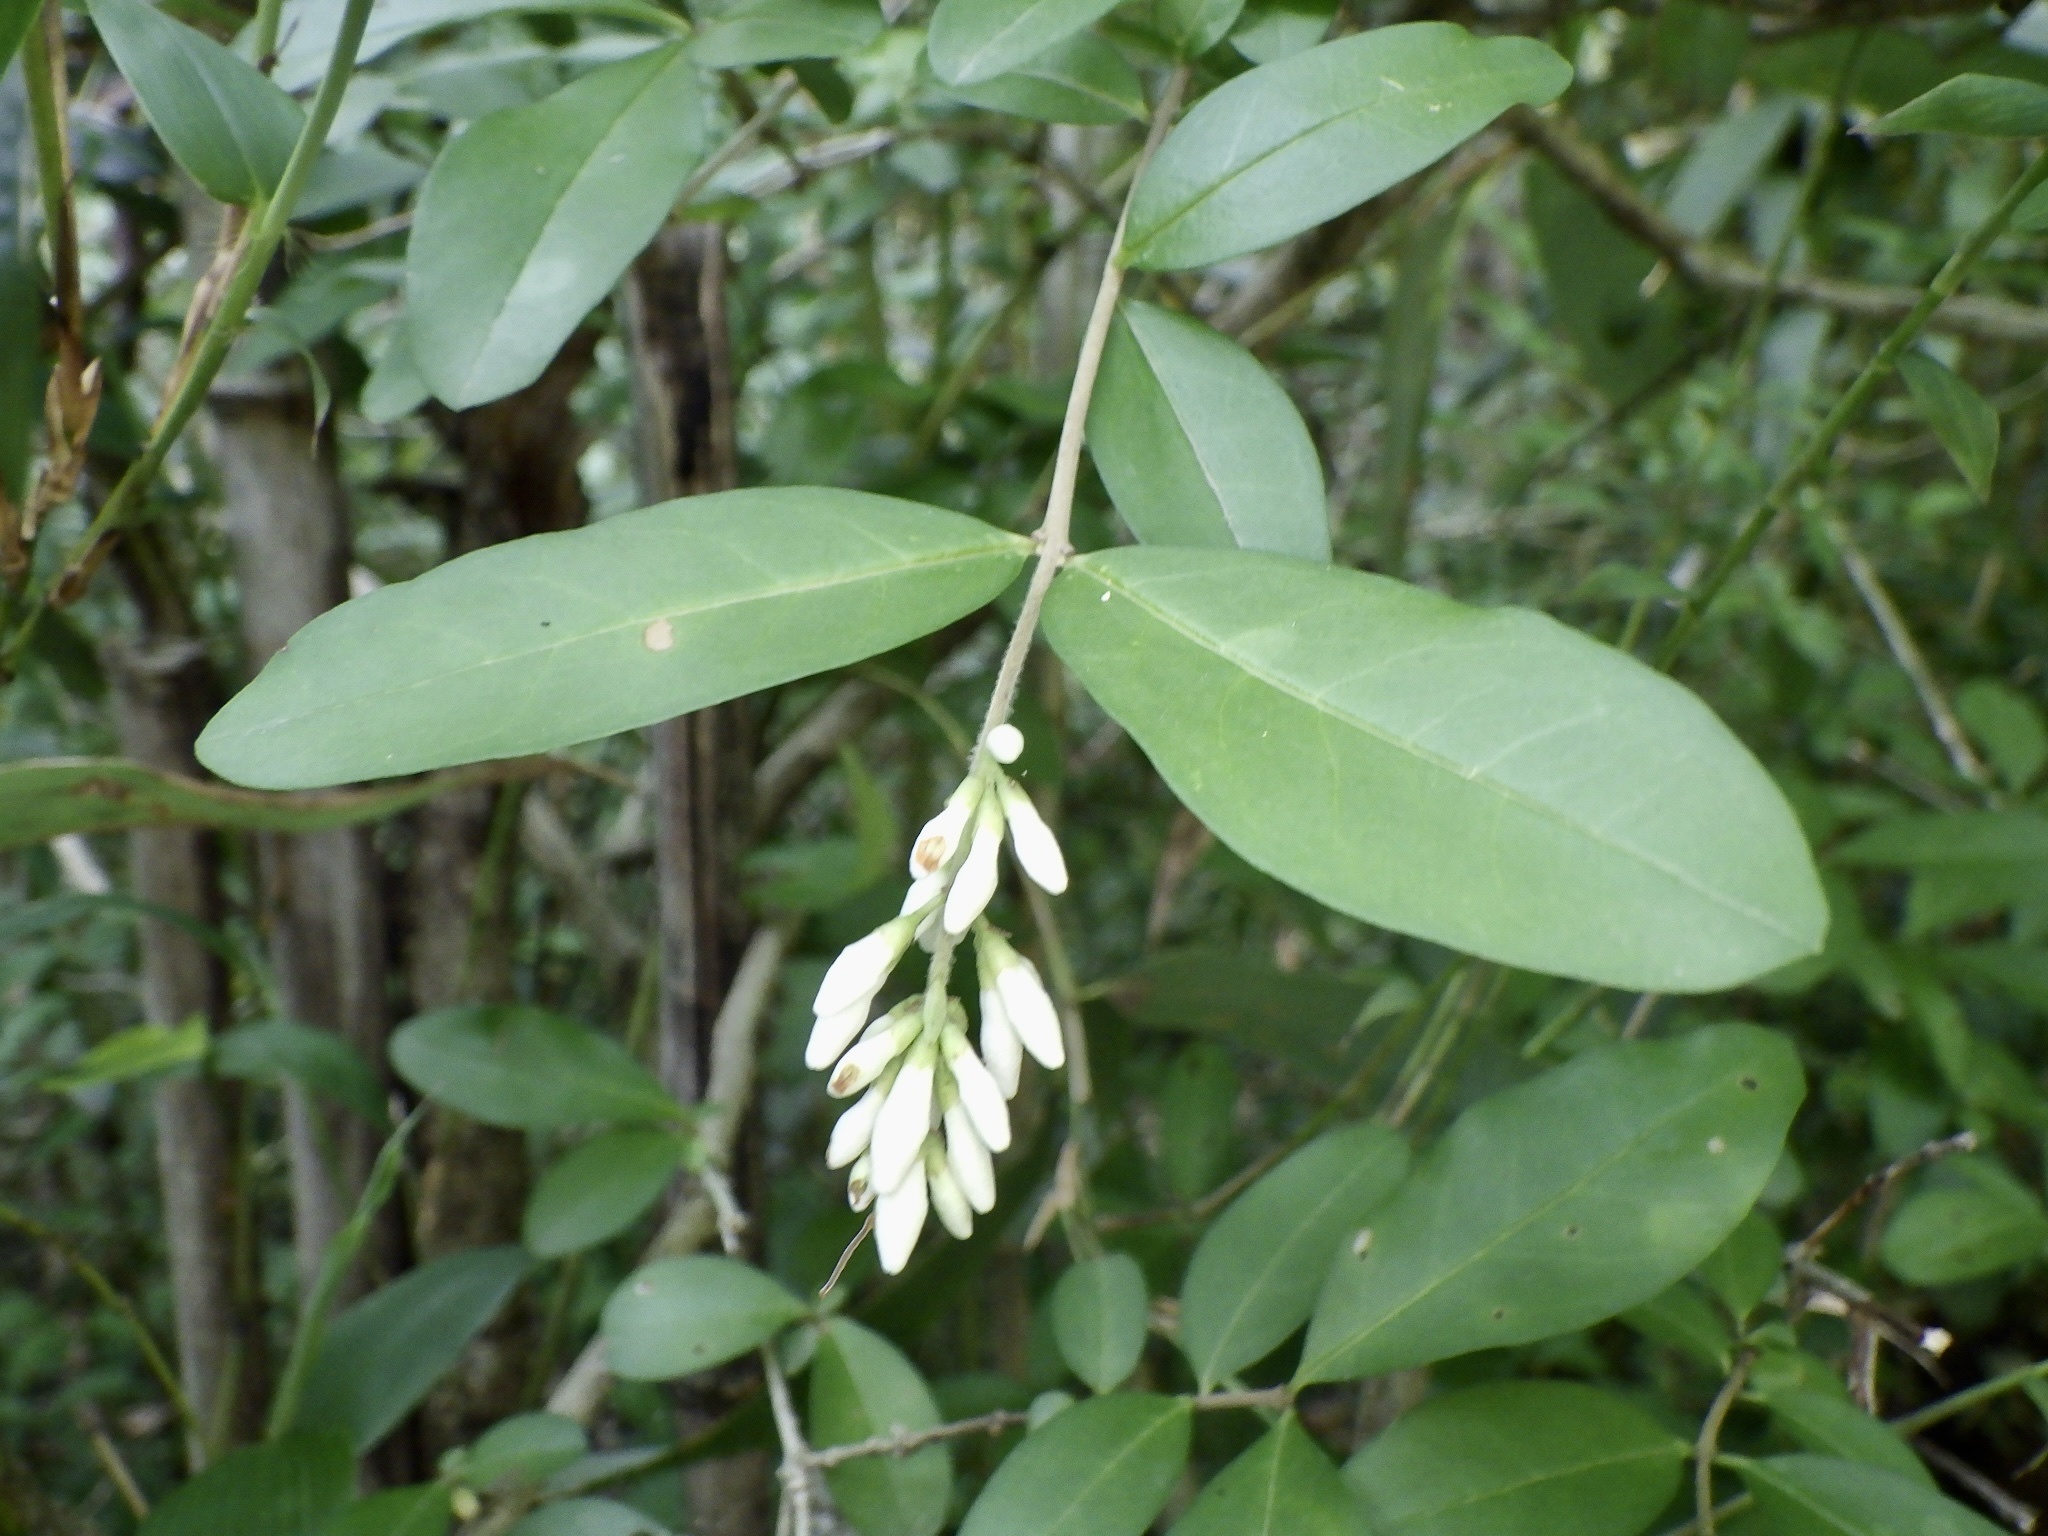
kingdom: Plantae
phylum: Tracheophyta
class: Magnoliopsida
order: Lamiales
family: Oleaceae
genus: Ligustrum
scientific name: Ligustrum obtusifolium
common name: Border privet
